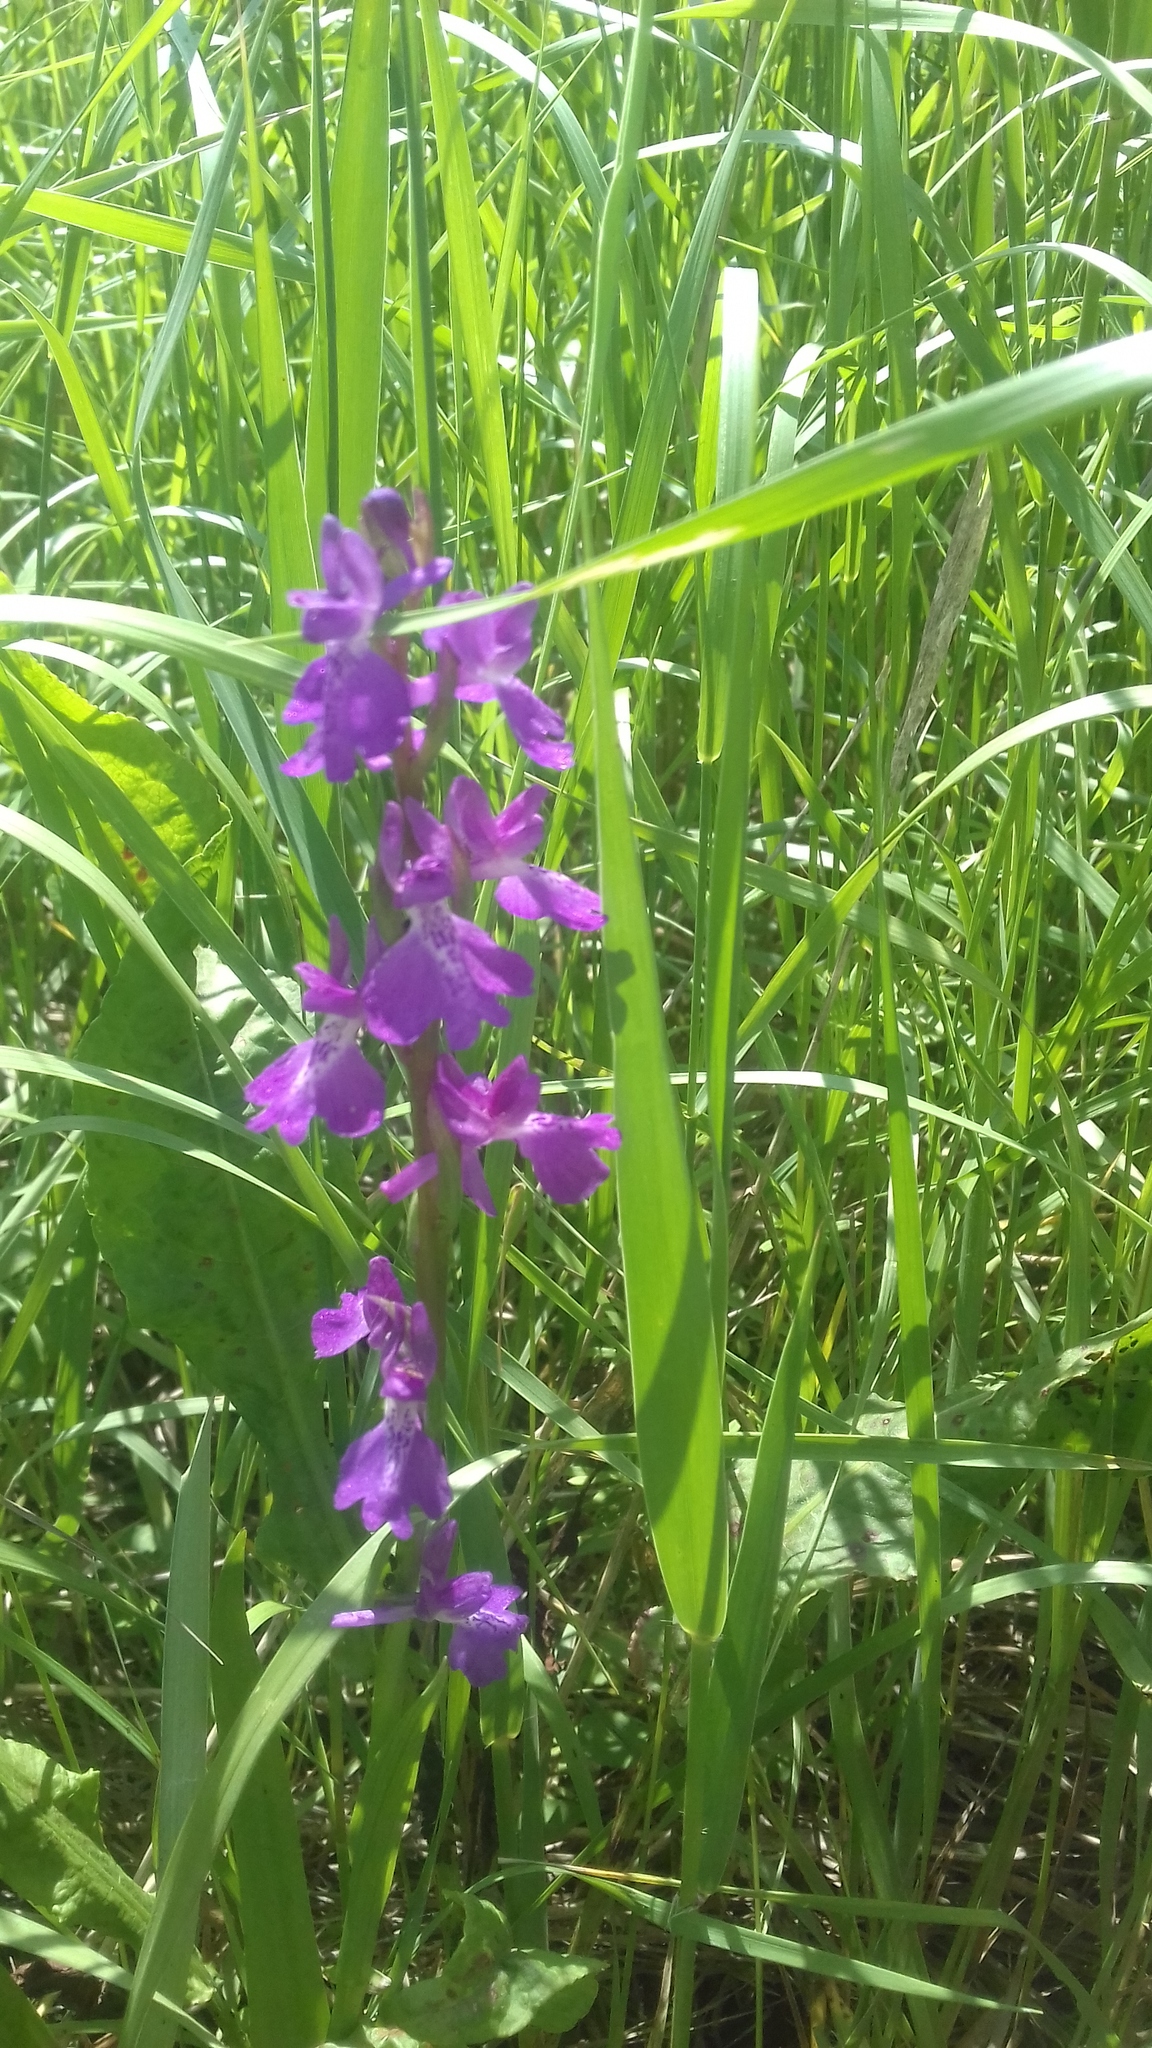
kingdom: Plantae
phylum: Tracheophyta
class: Liliopsida
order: Asparagales
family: Orchidaceae
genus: Anacamptis
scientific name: Anacamptis palustris
